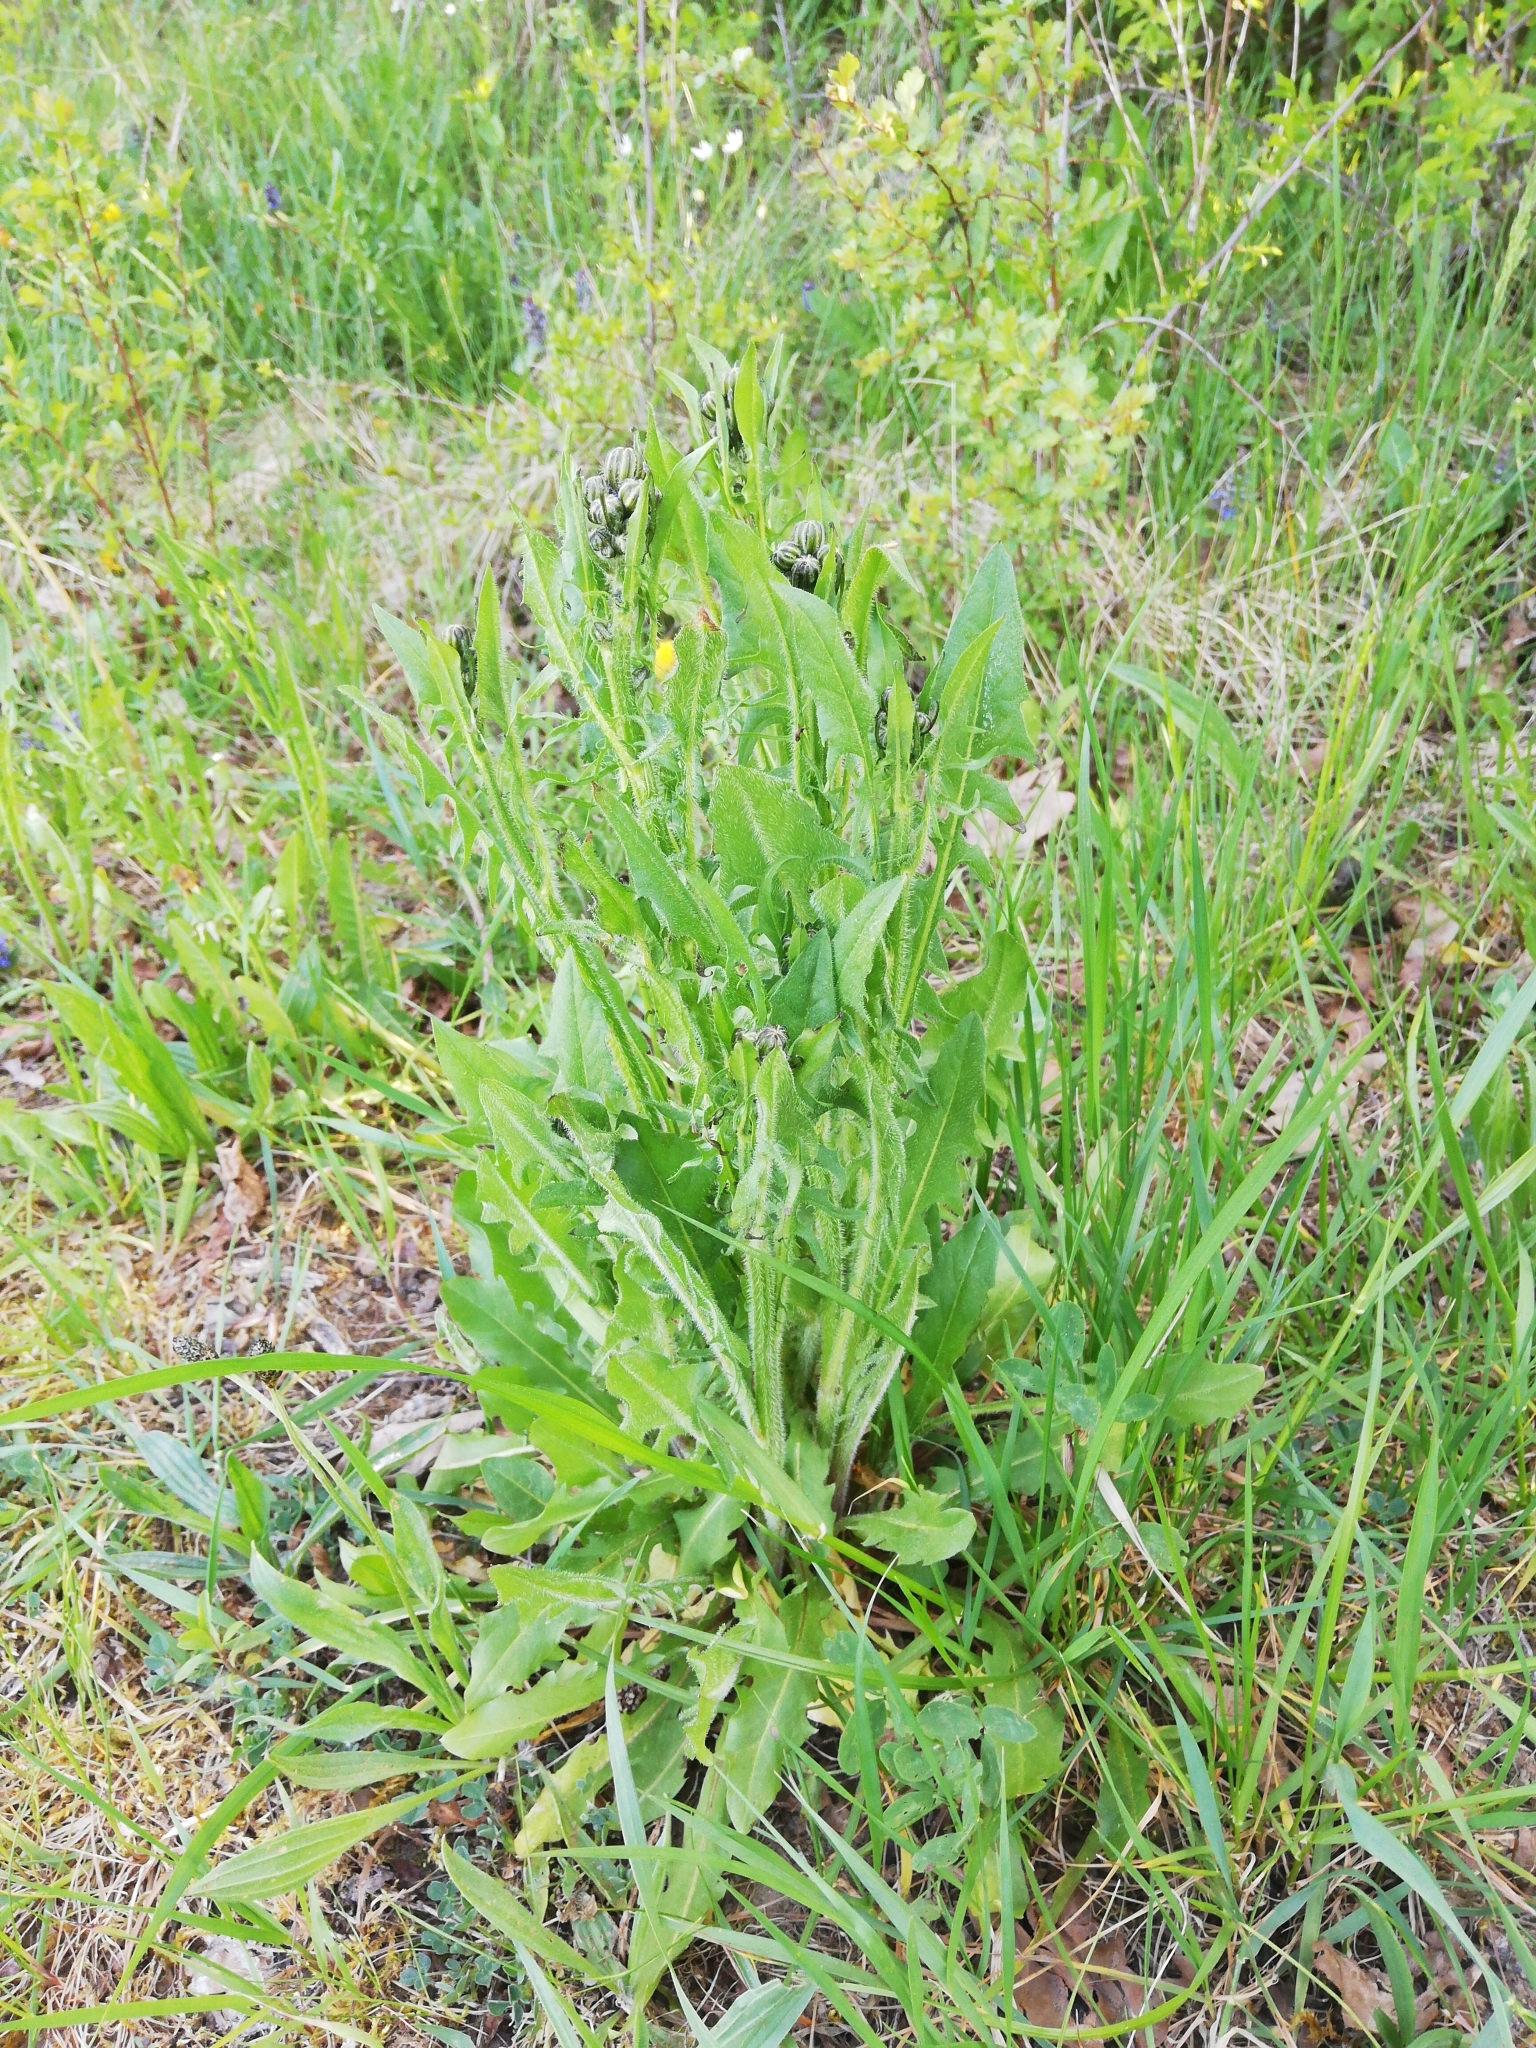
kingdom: Plantae
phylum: Tracheophyta
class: Magnoliopsida
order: Asterales
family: Asteraceae
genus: Crepis
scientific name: Crepis biennis
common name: Rough hawk's-beard
